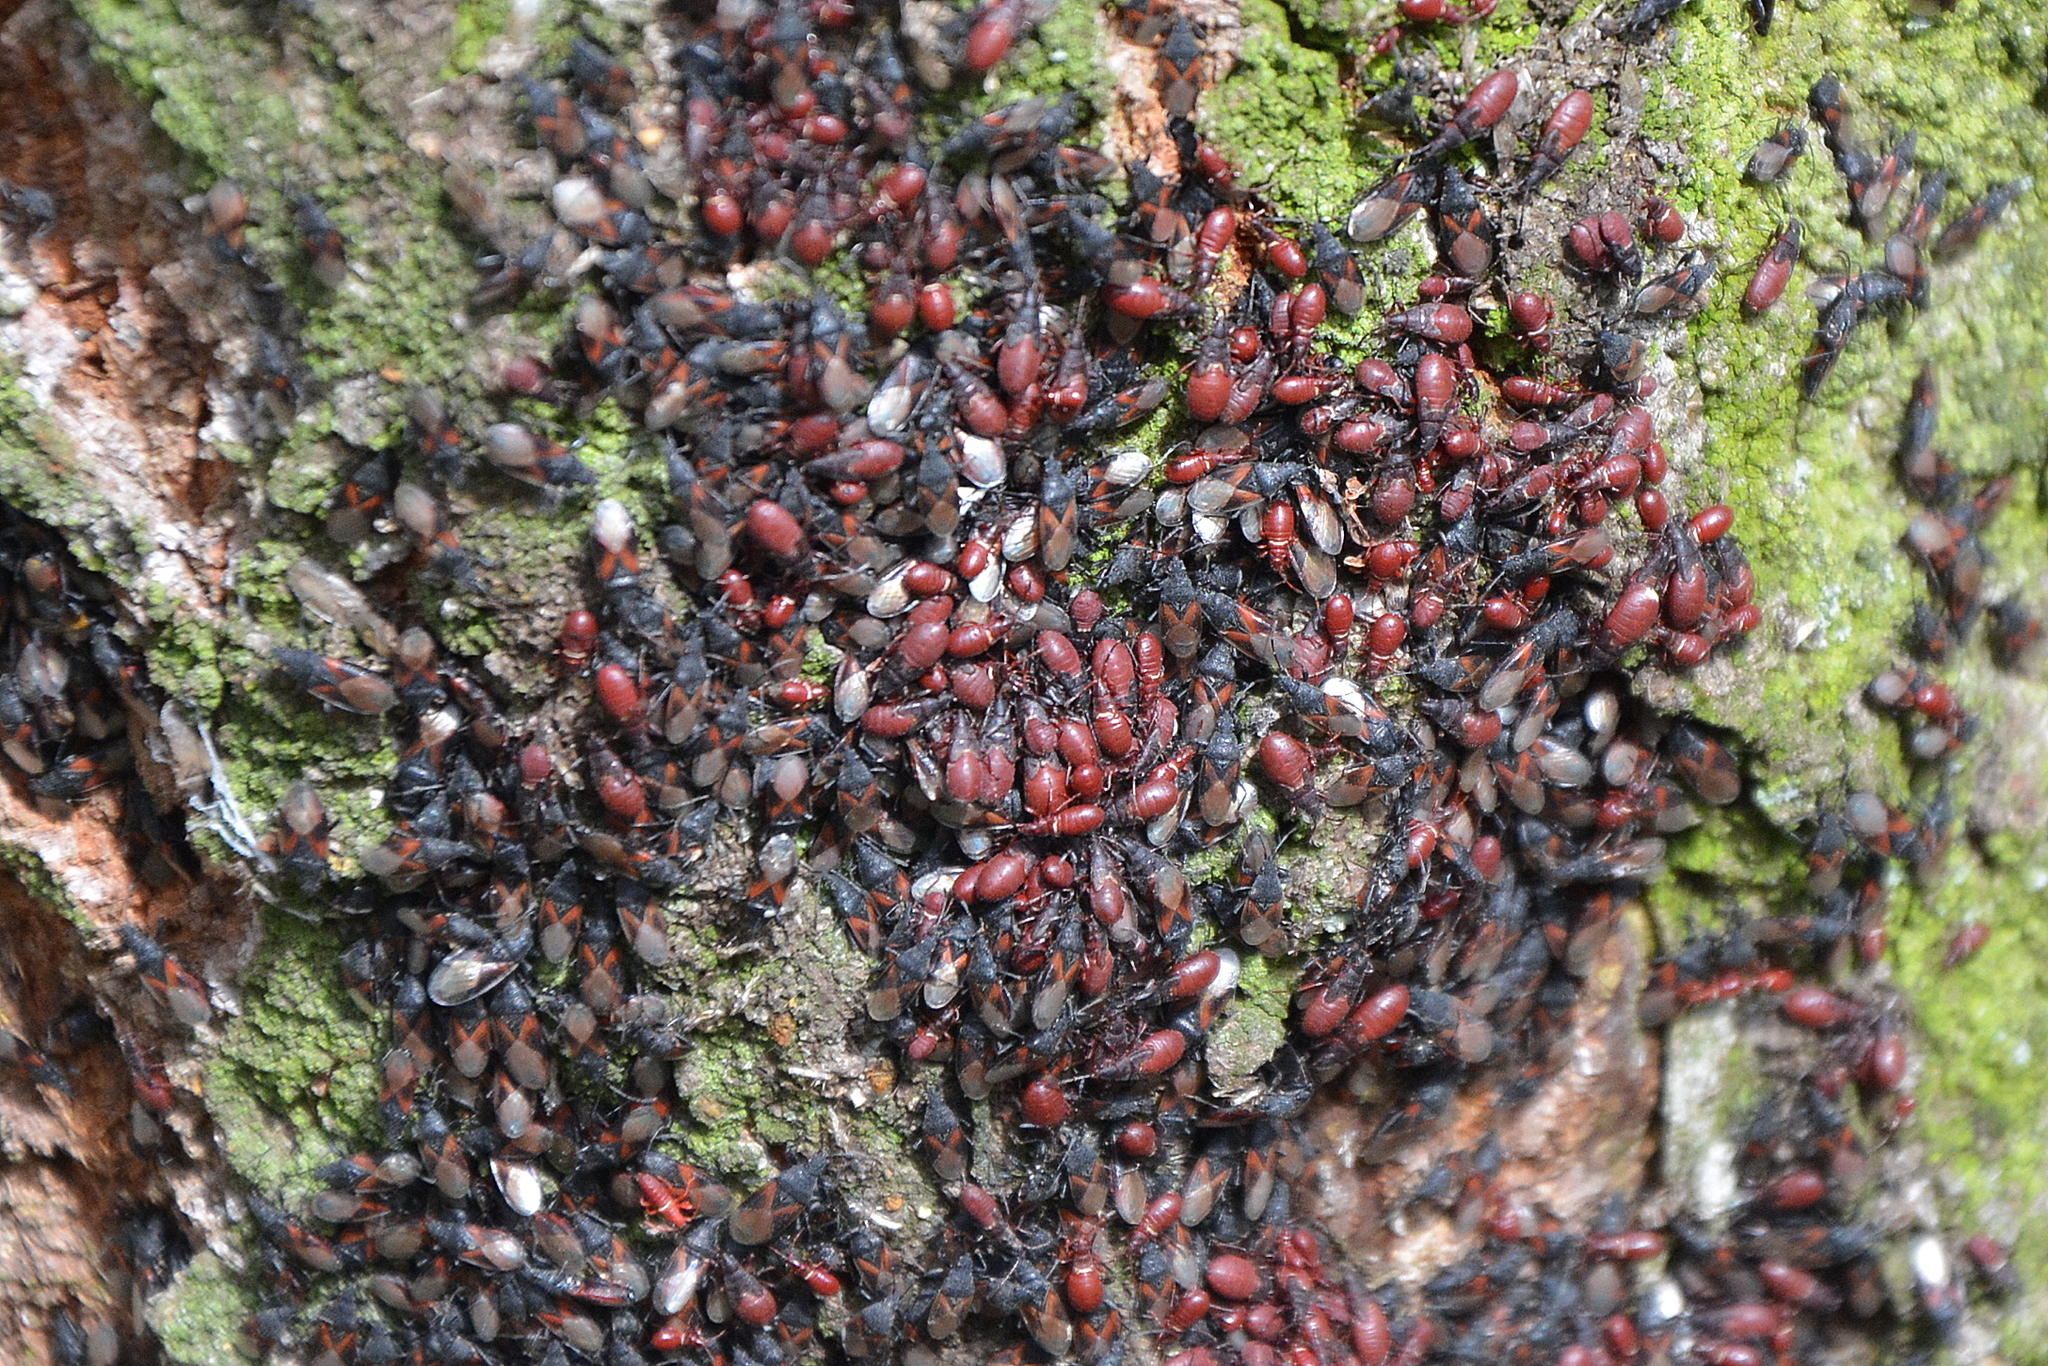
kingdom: Animalia
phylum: Arthropoda
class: Insecta
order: Hemiptera
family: Oxycarenidae
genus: Oxycarenus
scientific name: Oxycarenus lavaterae
